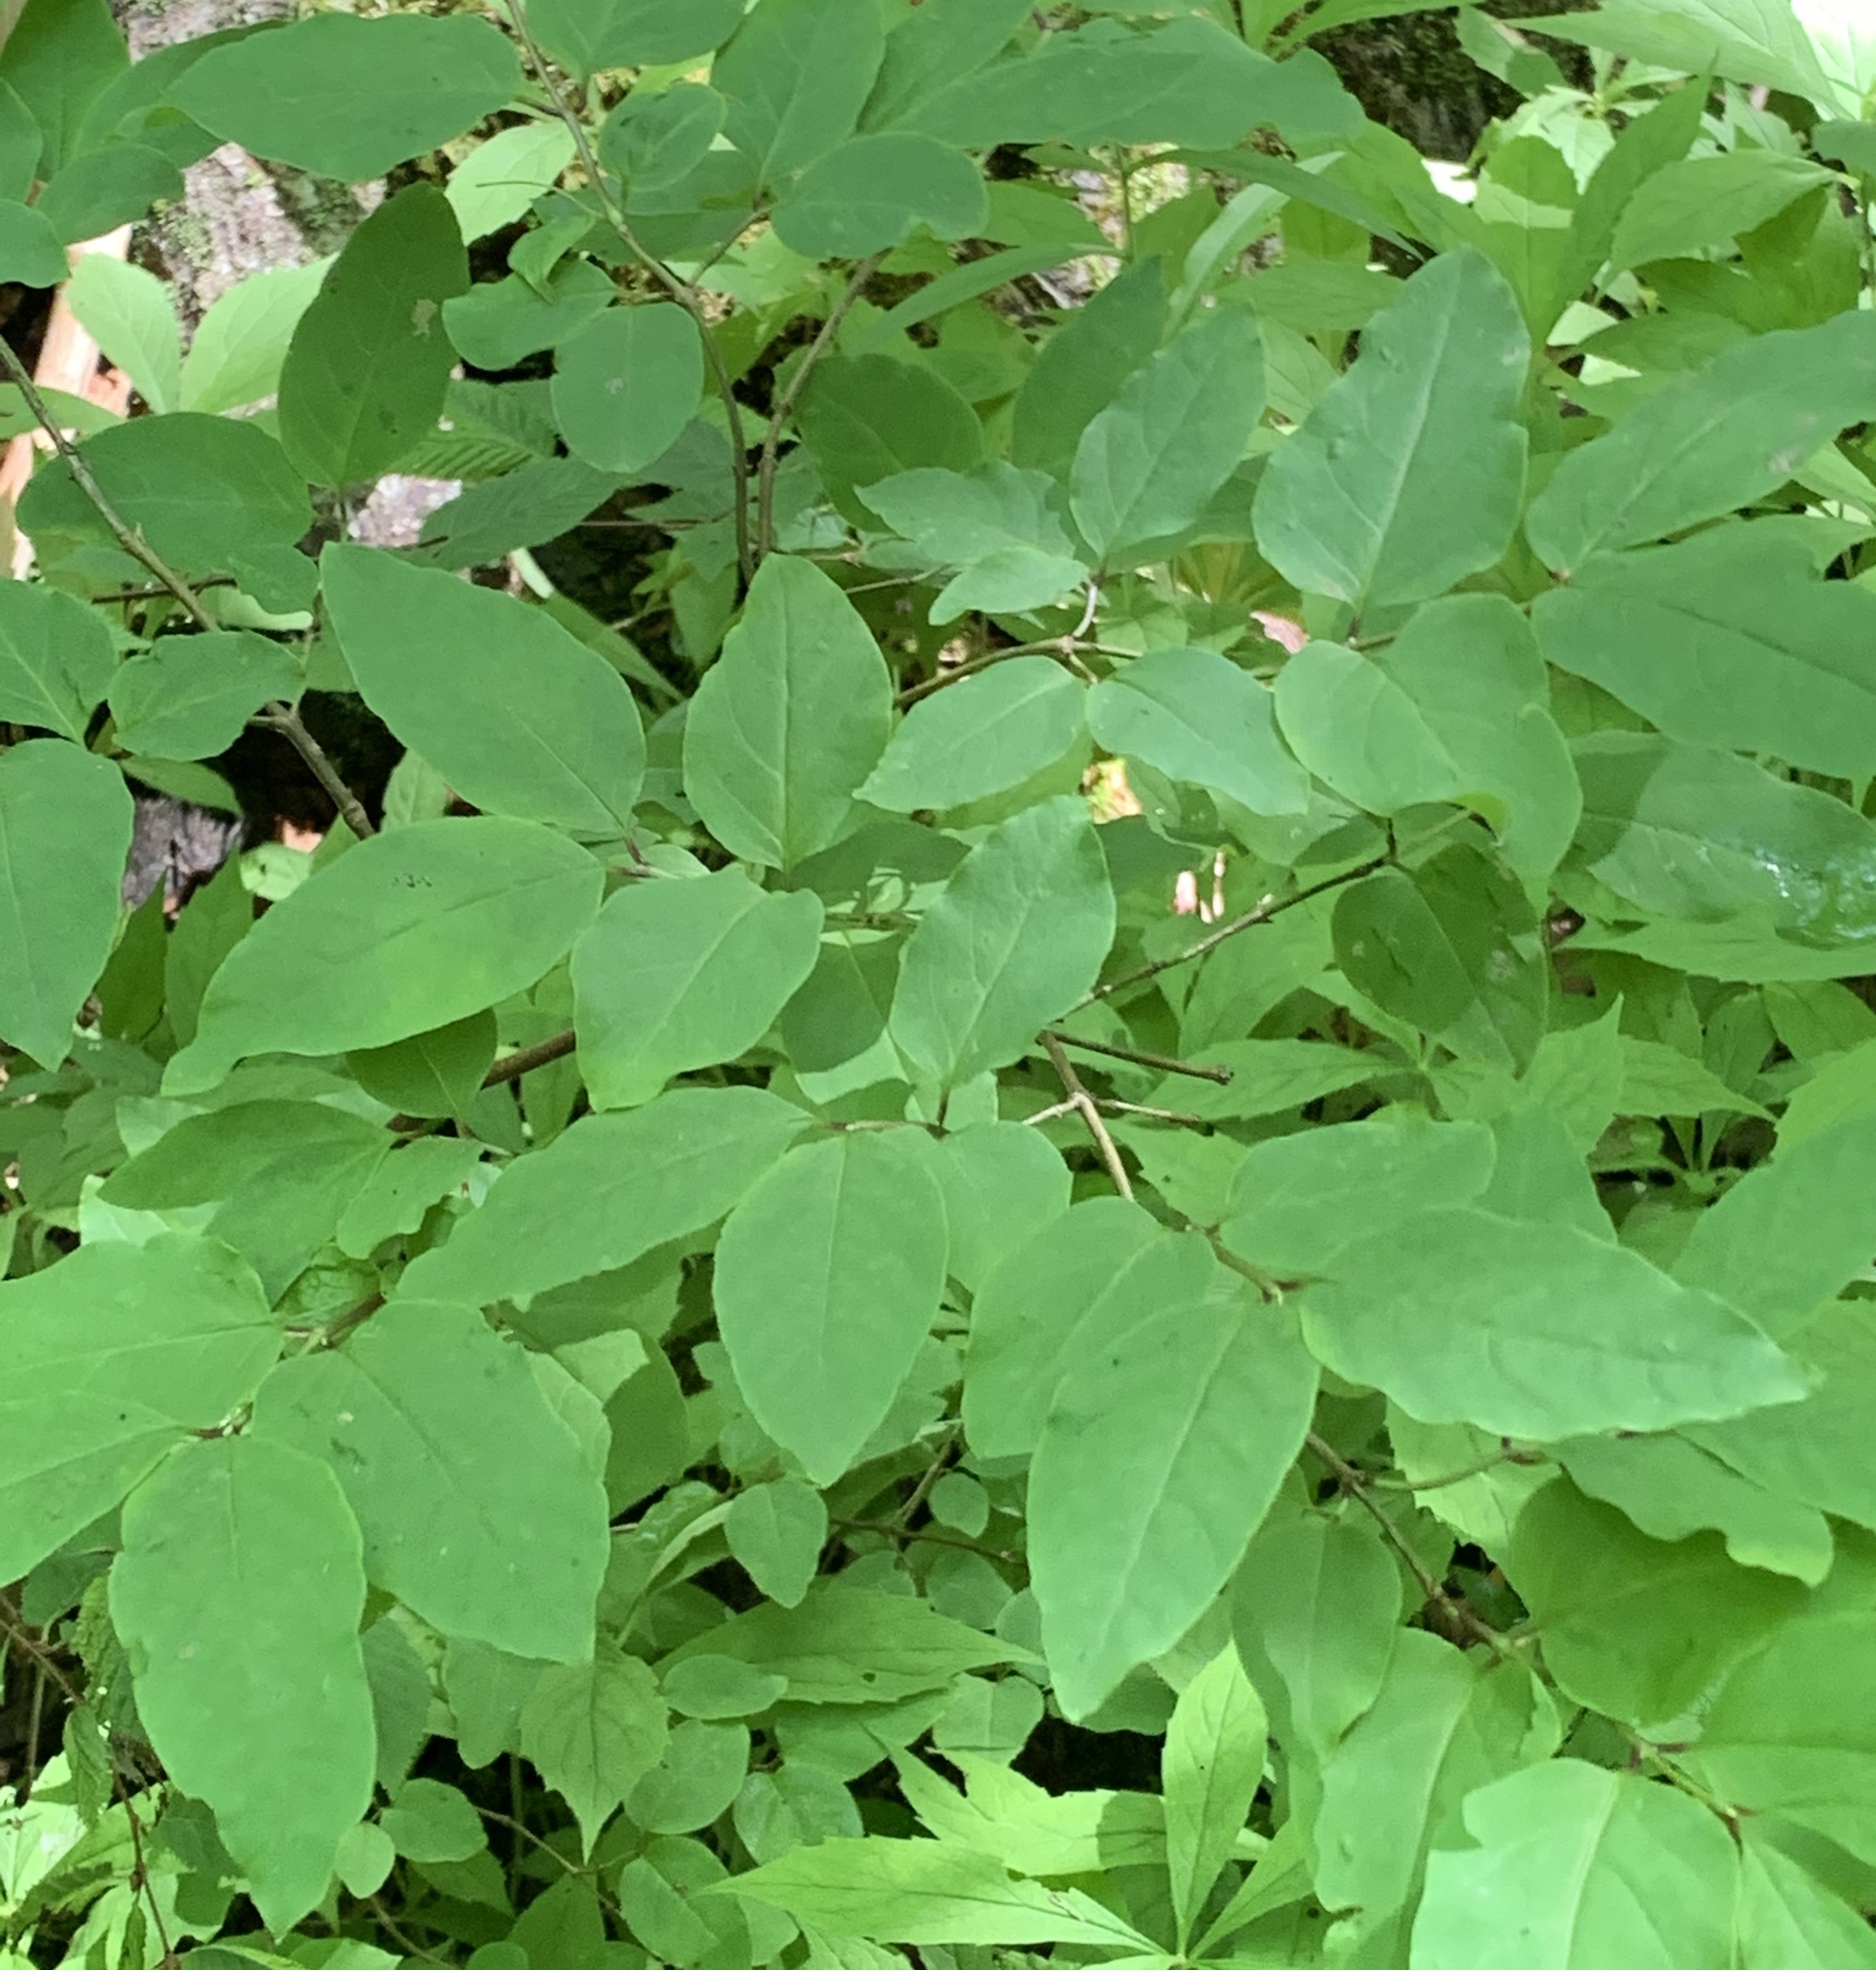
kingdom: Plantae
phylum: Tracheophyta
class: Magnoliopsida
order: Dipsacales
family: Caprifoliaceae
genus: Lonicera
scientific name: Lonicera canadensis
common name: American fly-honeysuckle
